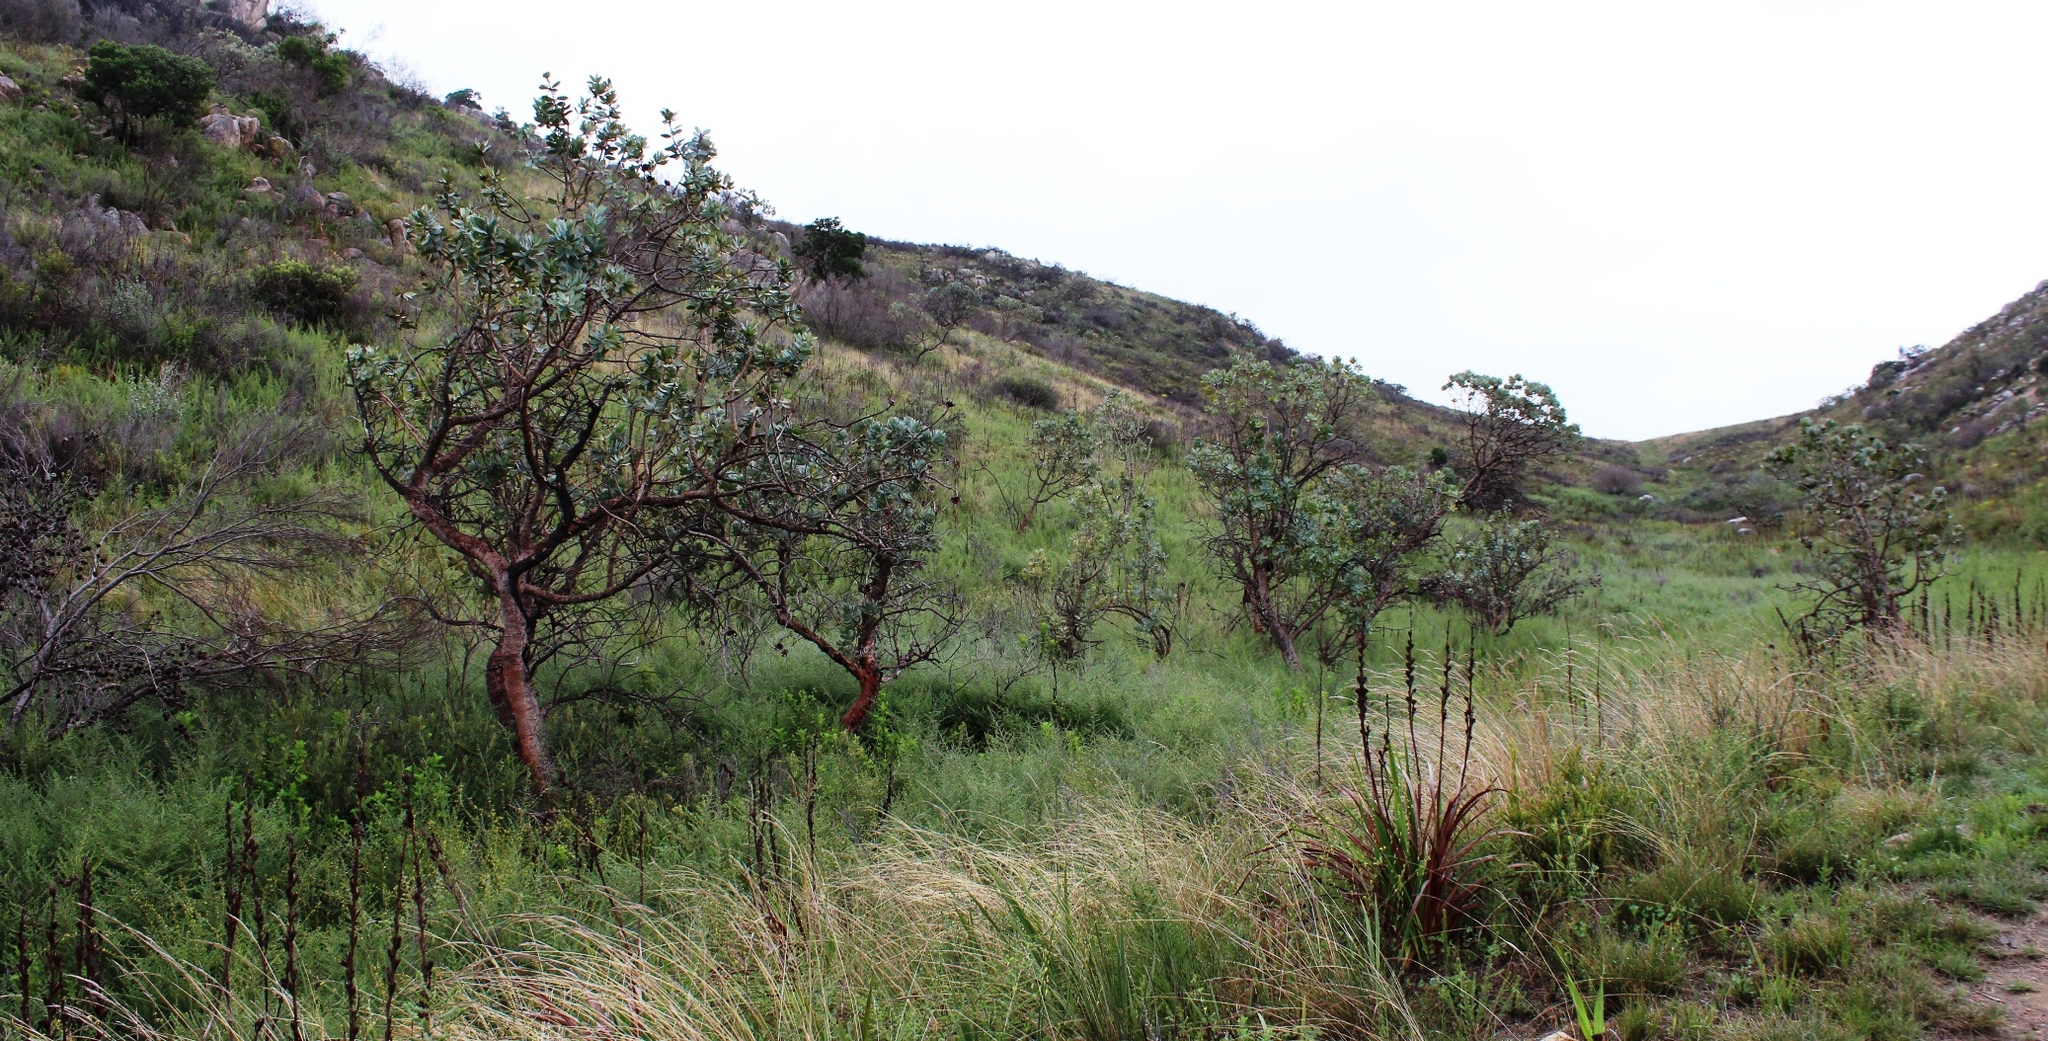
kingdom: Plantae
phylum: Tracheophyta
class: Magnoliopsida
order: Proteales
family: Proteaceae
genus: Protea
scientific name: Protea nitida
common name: Tree protea
